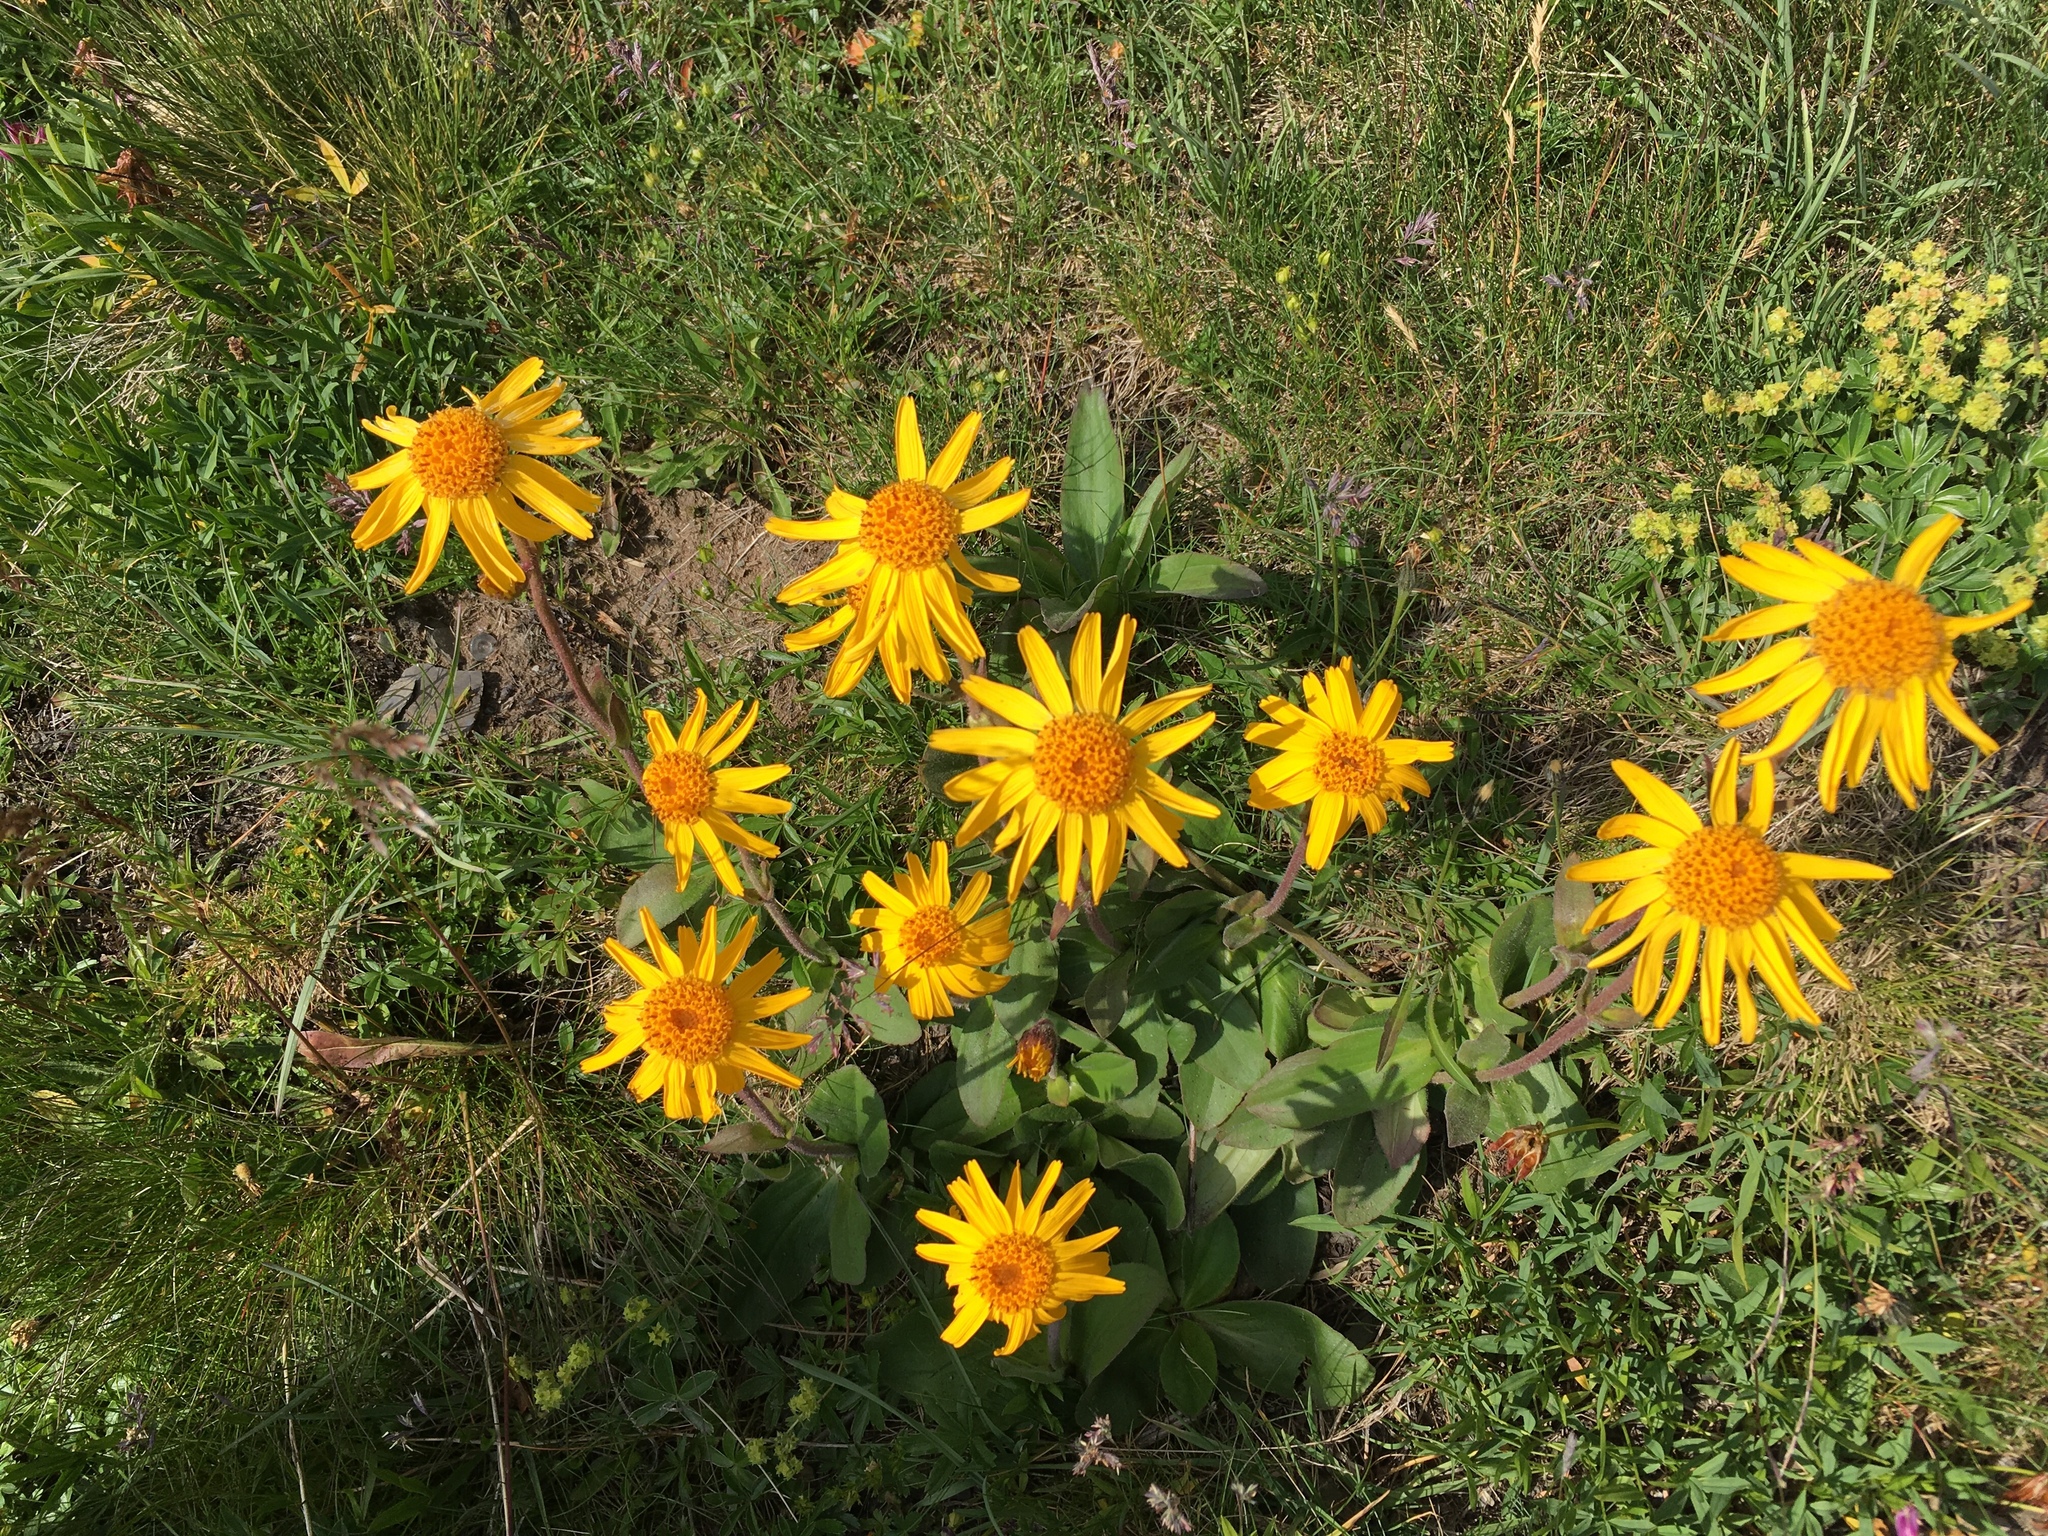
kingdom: Plantae
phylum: Tracheophyta
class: Magnoliopsida
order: Asterales
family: Asteraceae
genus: Arnica
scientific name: Arnica montana
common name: Leopard's bane
